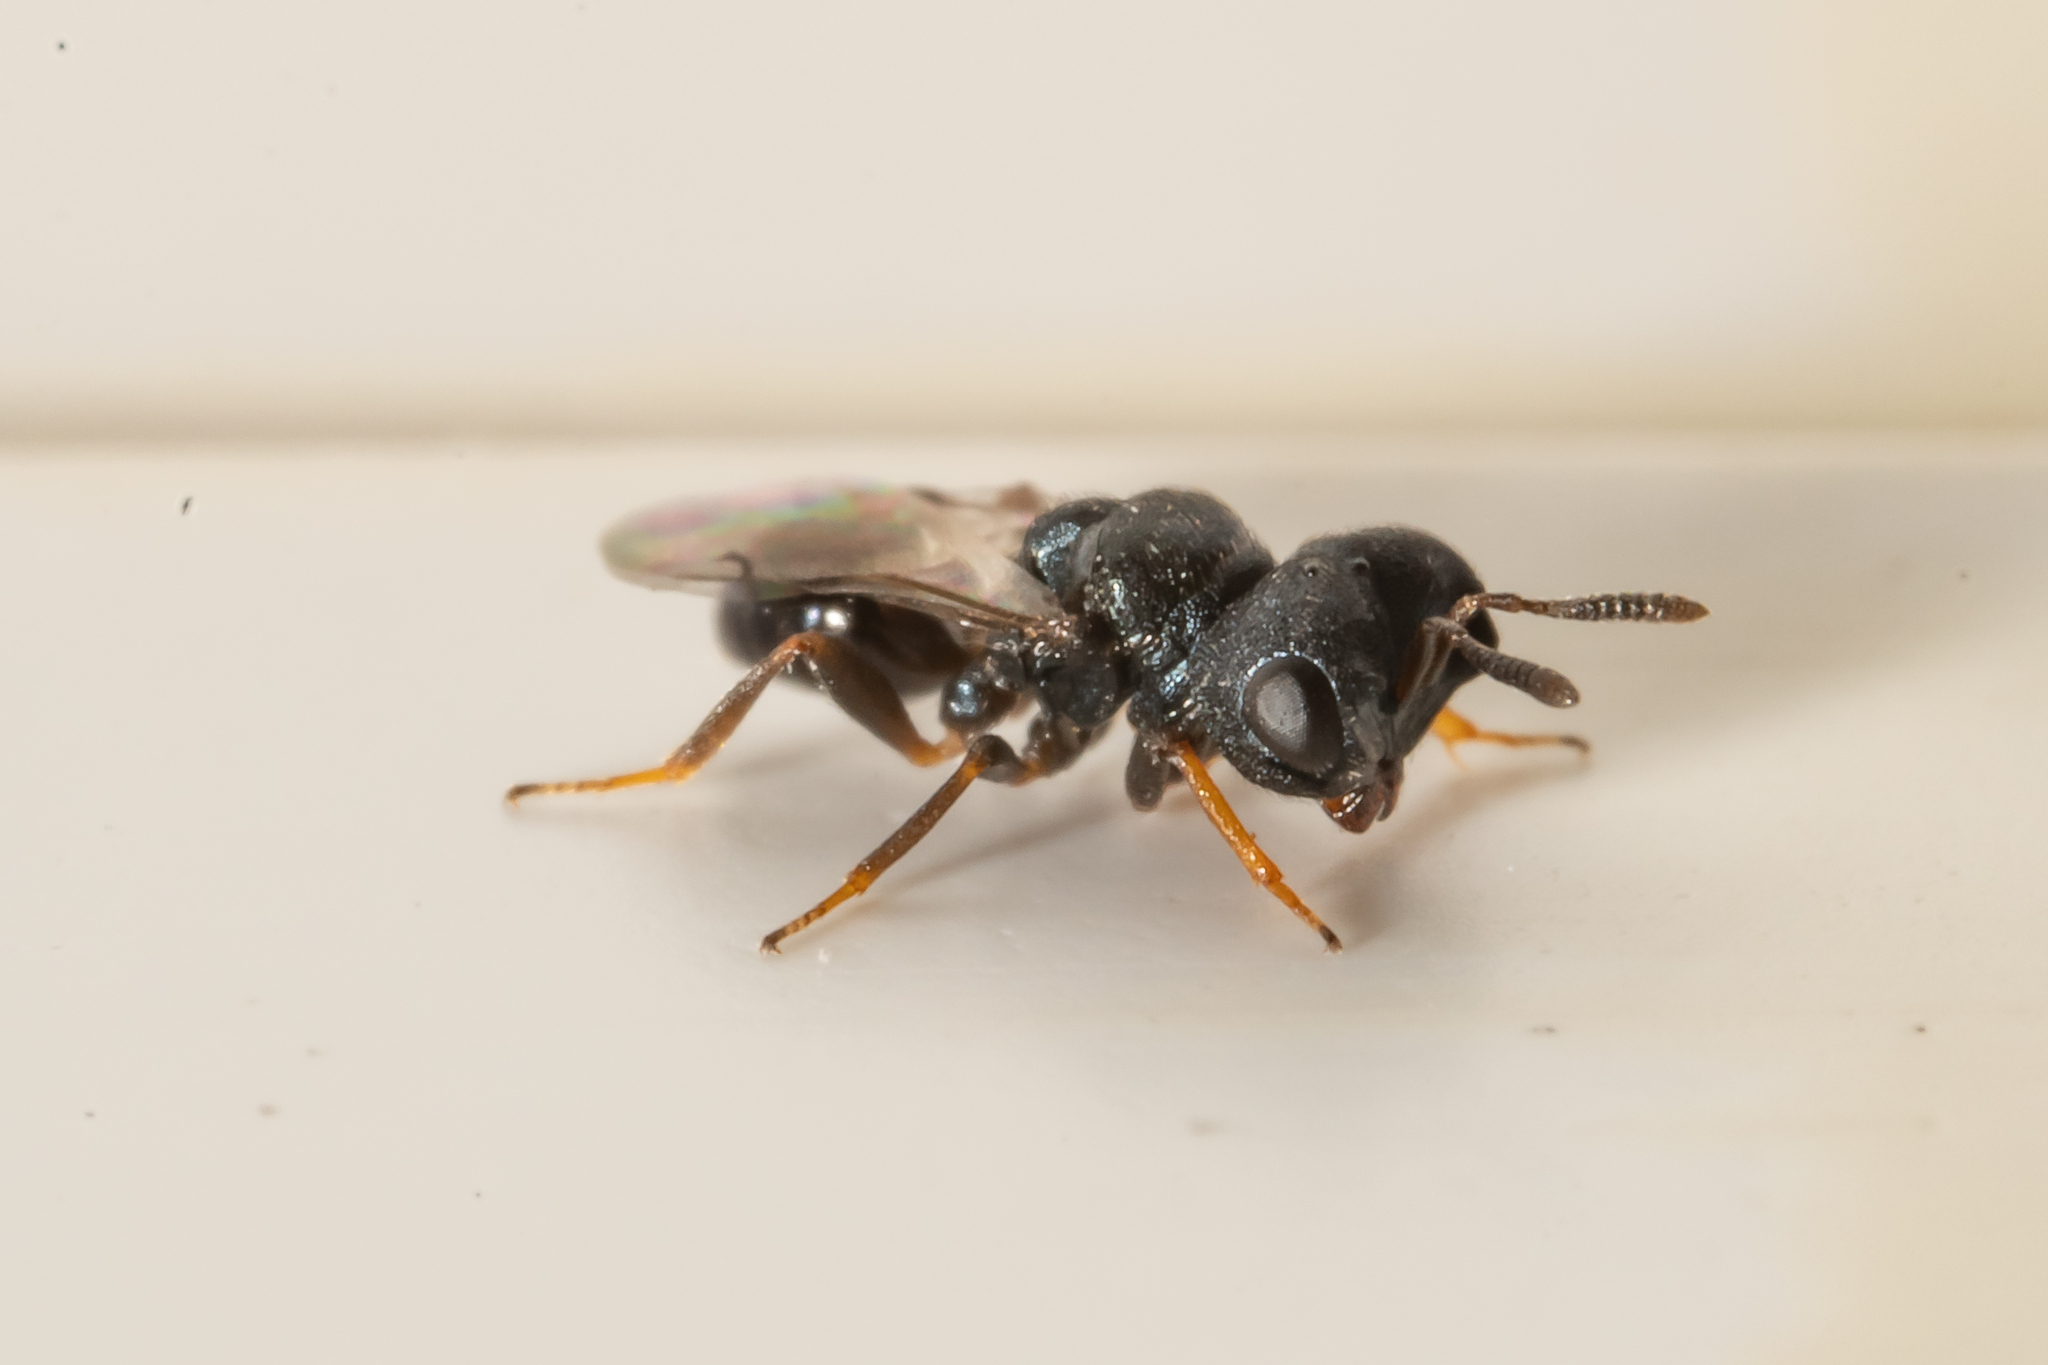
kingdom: Animalia
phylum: Arthropoda
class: Insecta
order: Hymenoptera
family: Pteromalidae
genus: Cratomus
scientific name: Cratomus megacephalus
